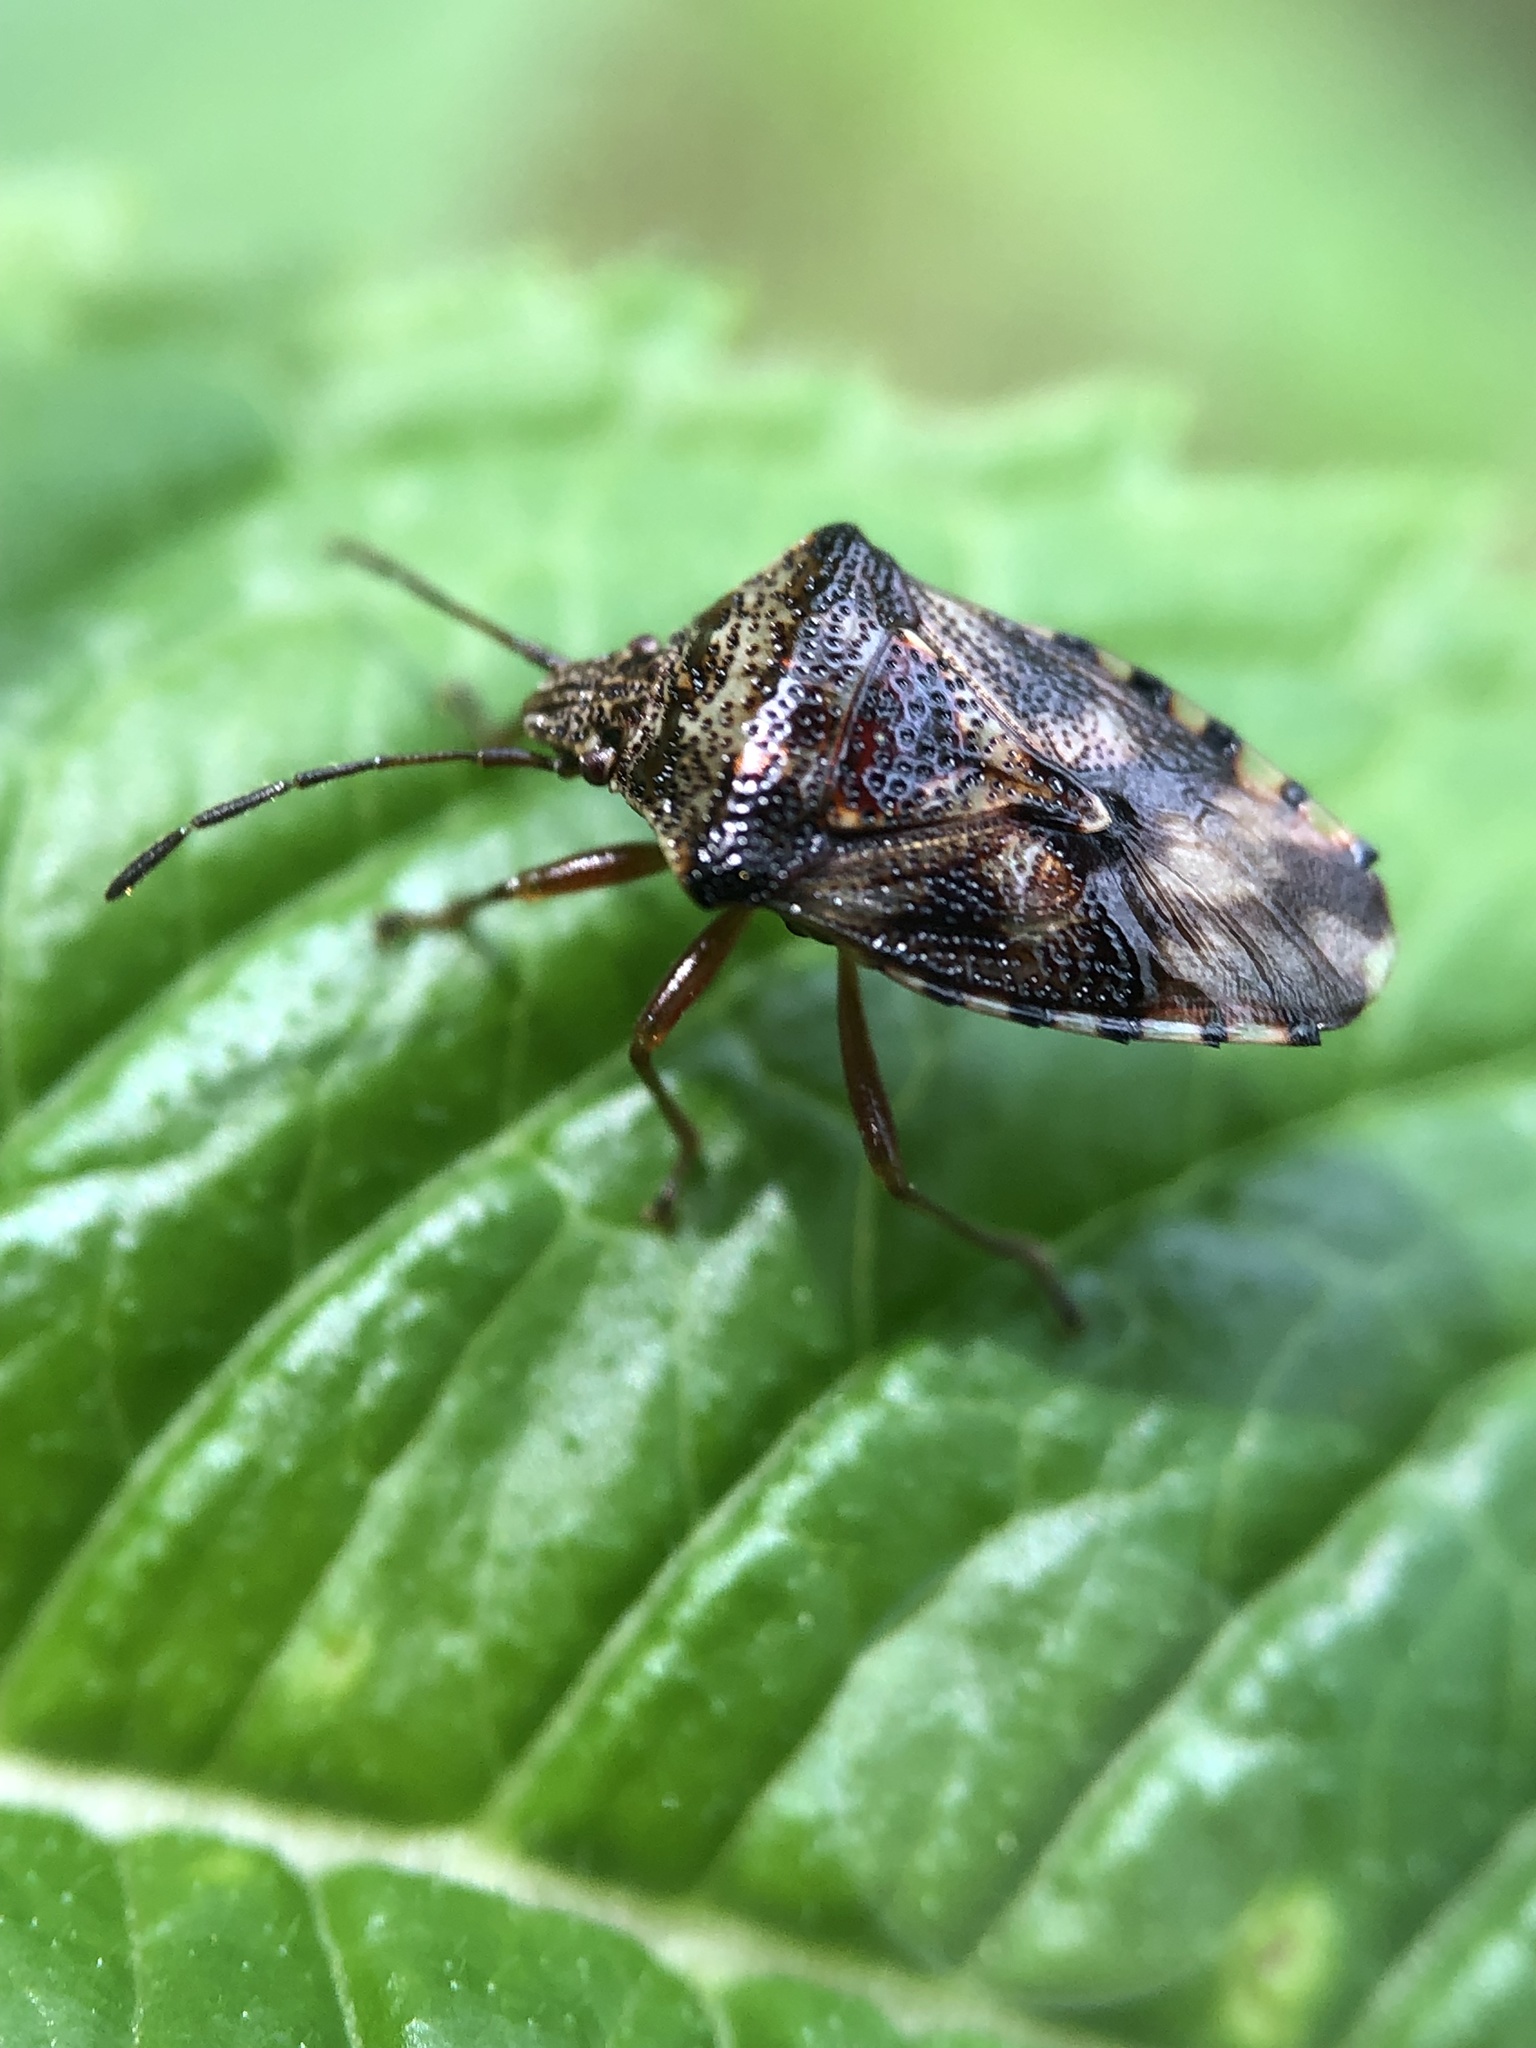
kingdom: Animalia
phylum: Arthropoda
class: Insecta
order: Hemiptera
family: Acanthosomatidae
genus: Elasmucha
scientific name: Elasmucha lateralis
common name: Shield bug
